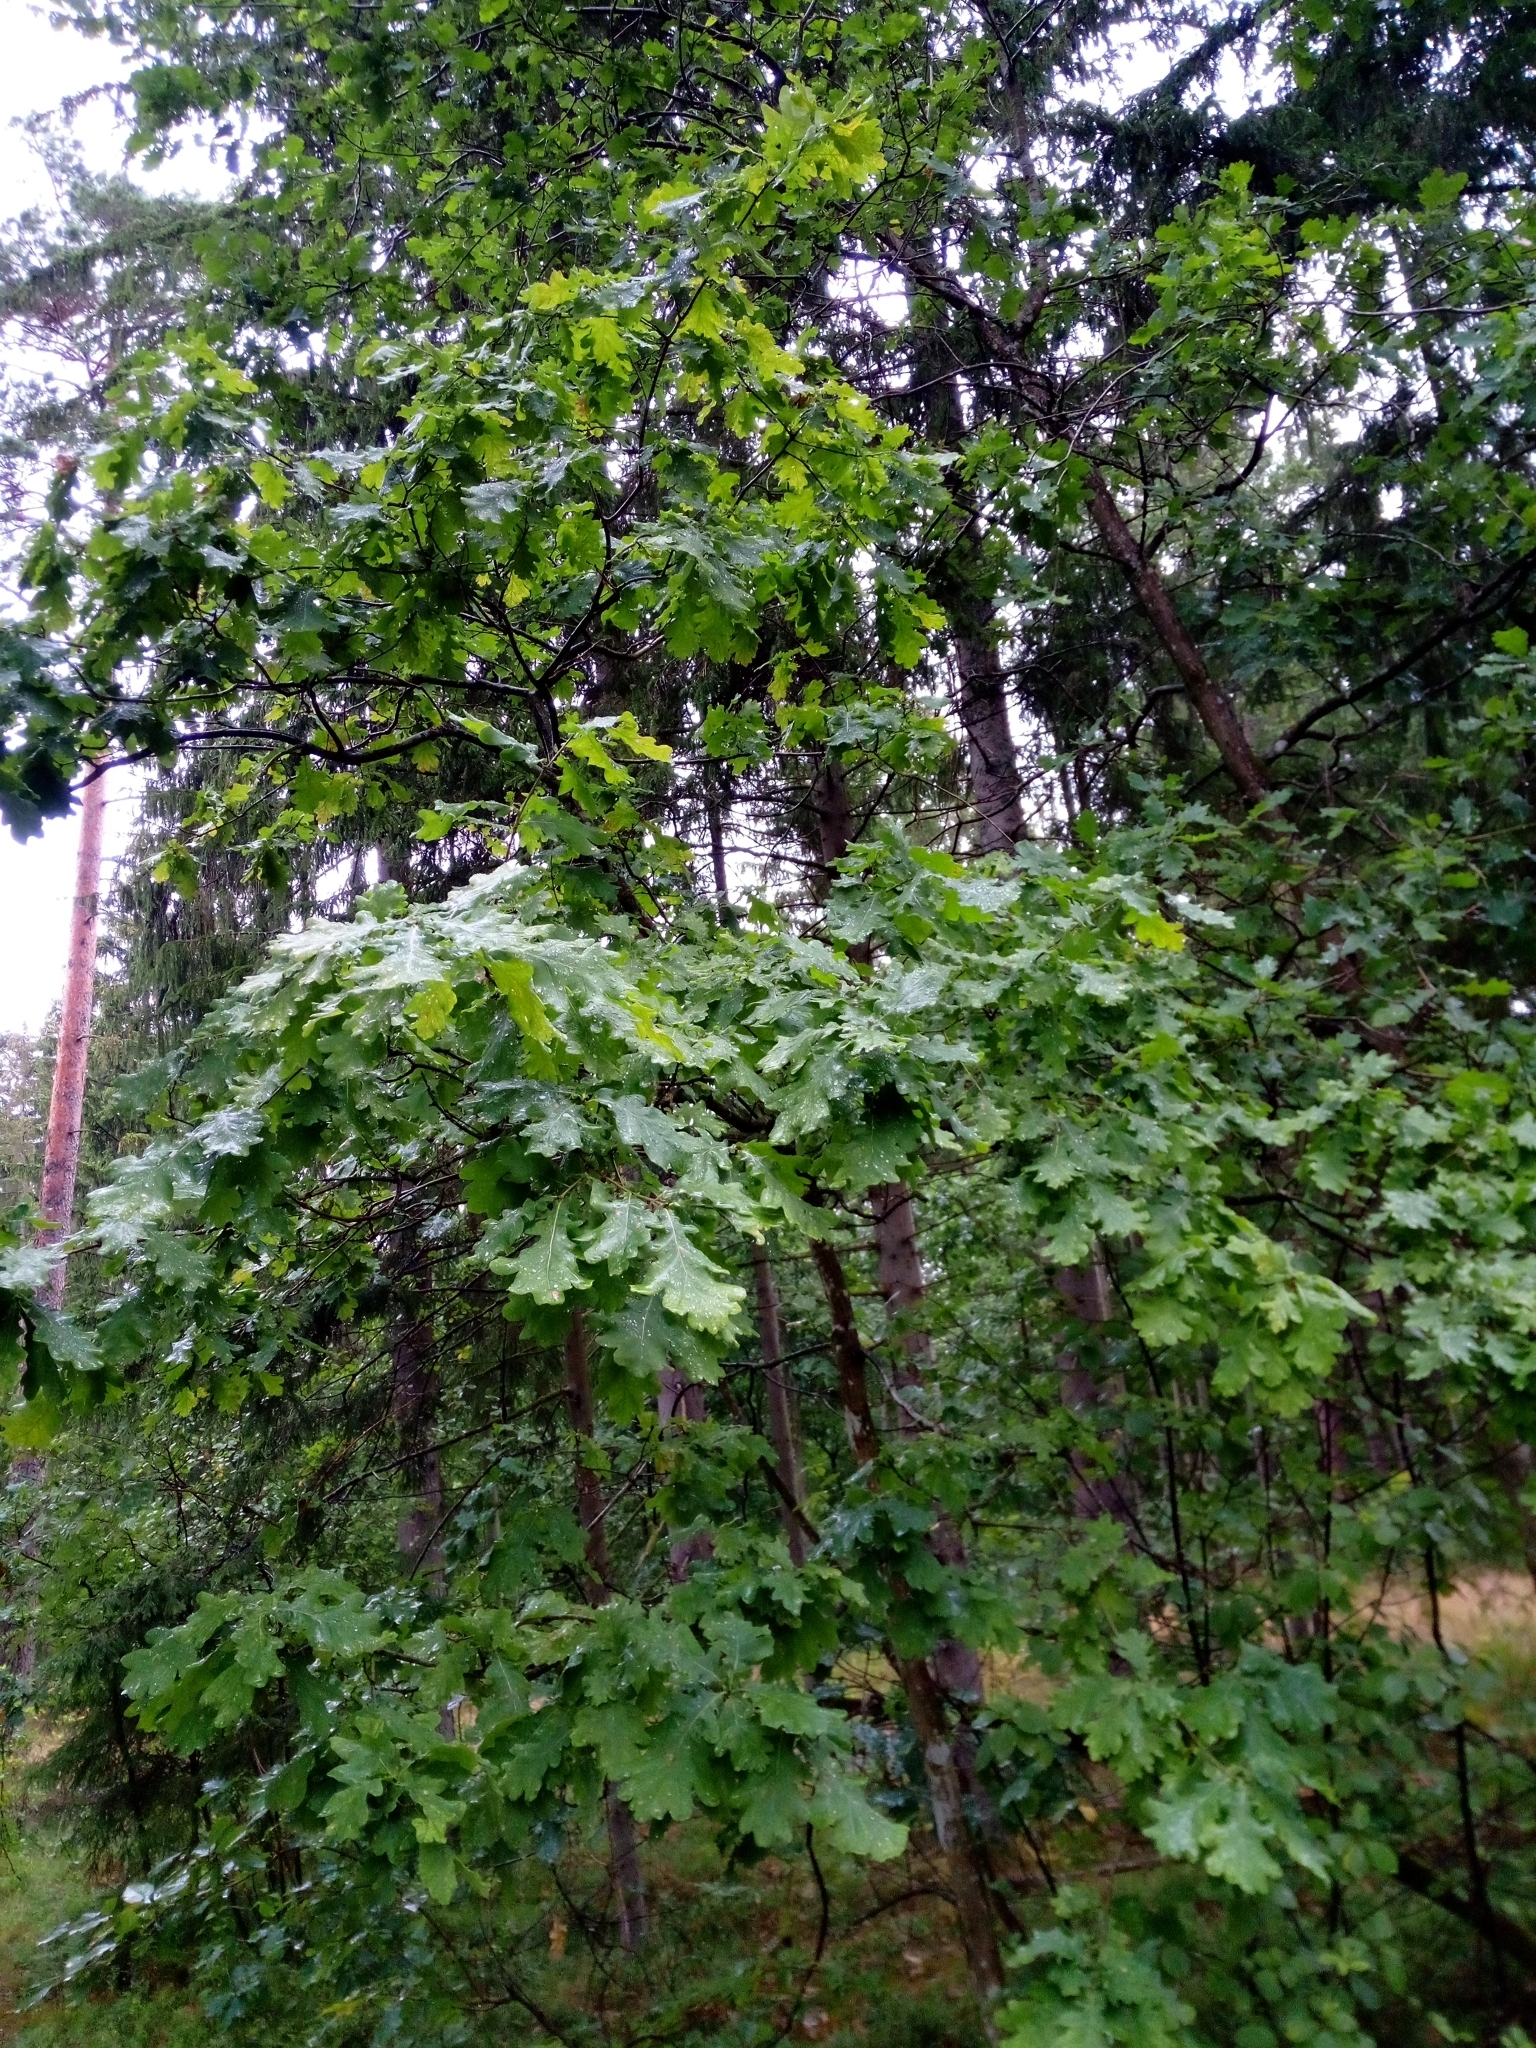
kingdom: Plantae
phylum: Tracheophyta
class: Magnoliopsida
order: Fagales
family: Fagaceae
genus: Quercus
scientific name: Quercus robur
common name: Pedunculate oak
